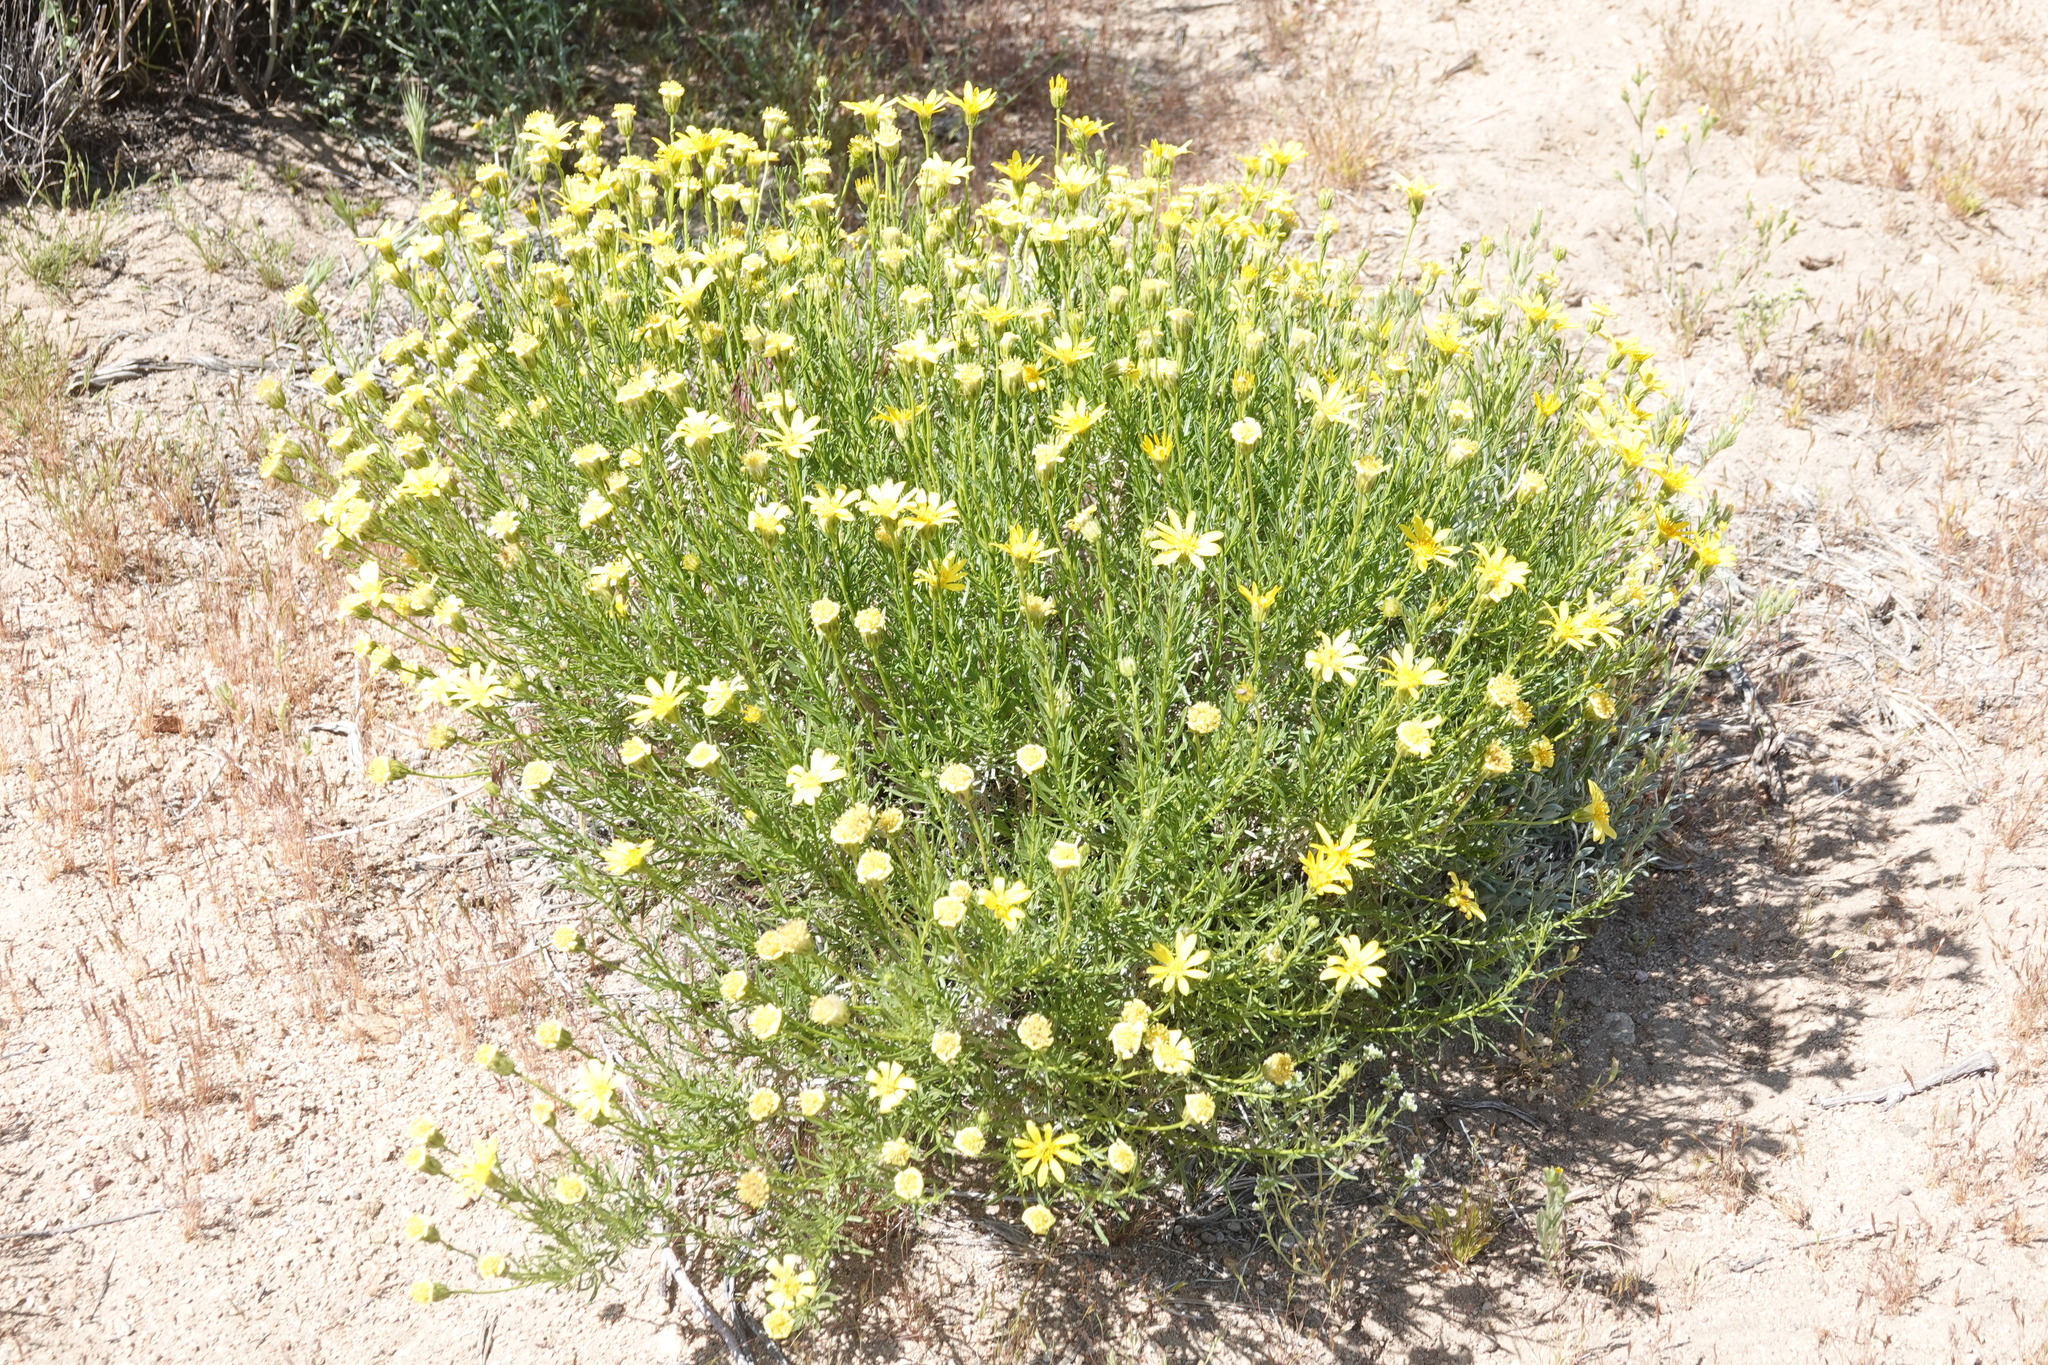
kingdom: Plantae
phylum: Tracheophyta
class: Magnoliopsida
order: Asterales
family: Asteraceae
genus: Ericameria
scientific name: Ericameria linearifolia
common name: Interior goldenbush
